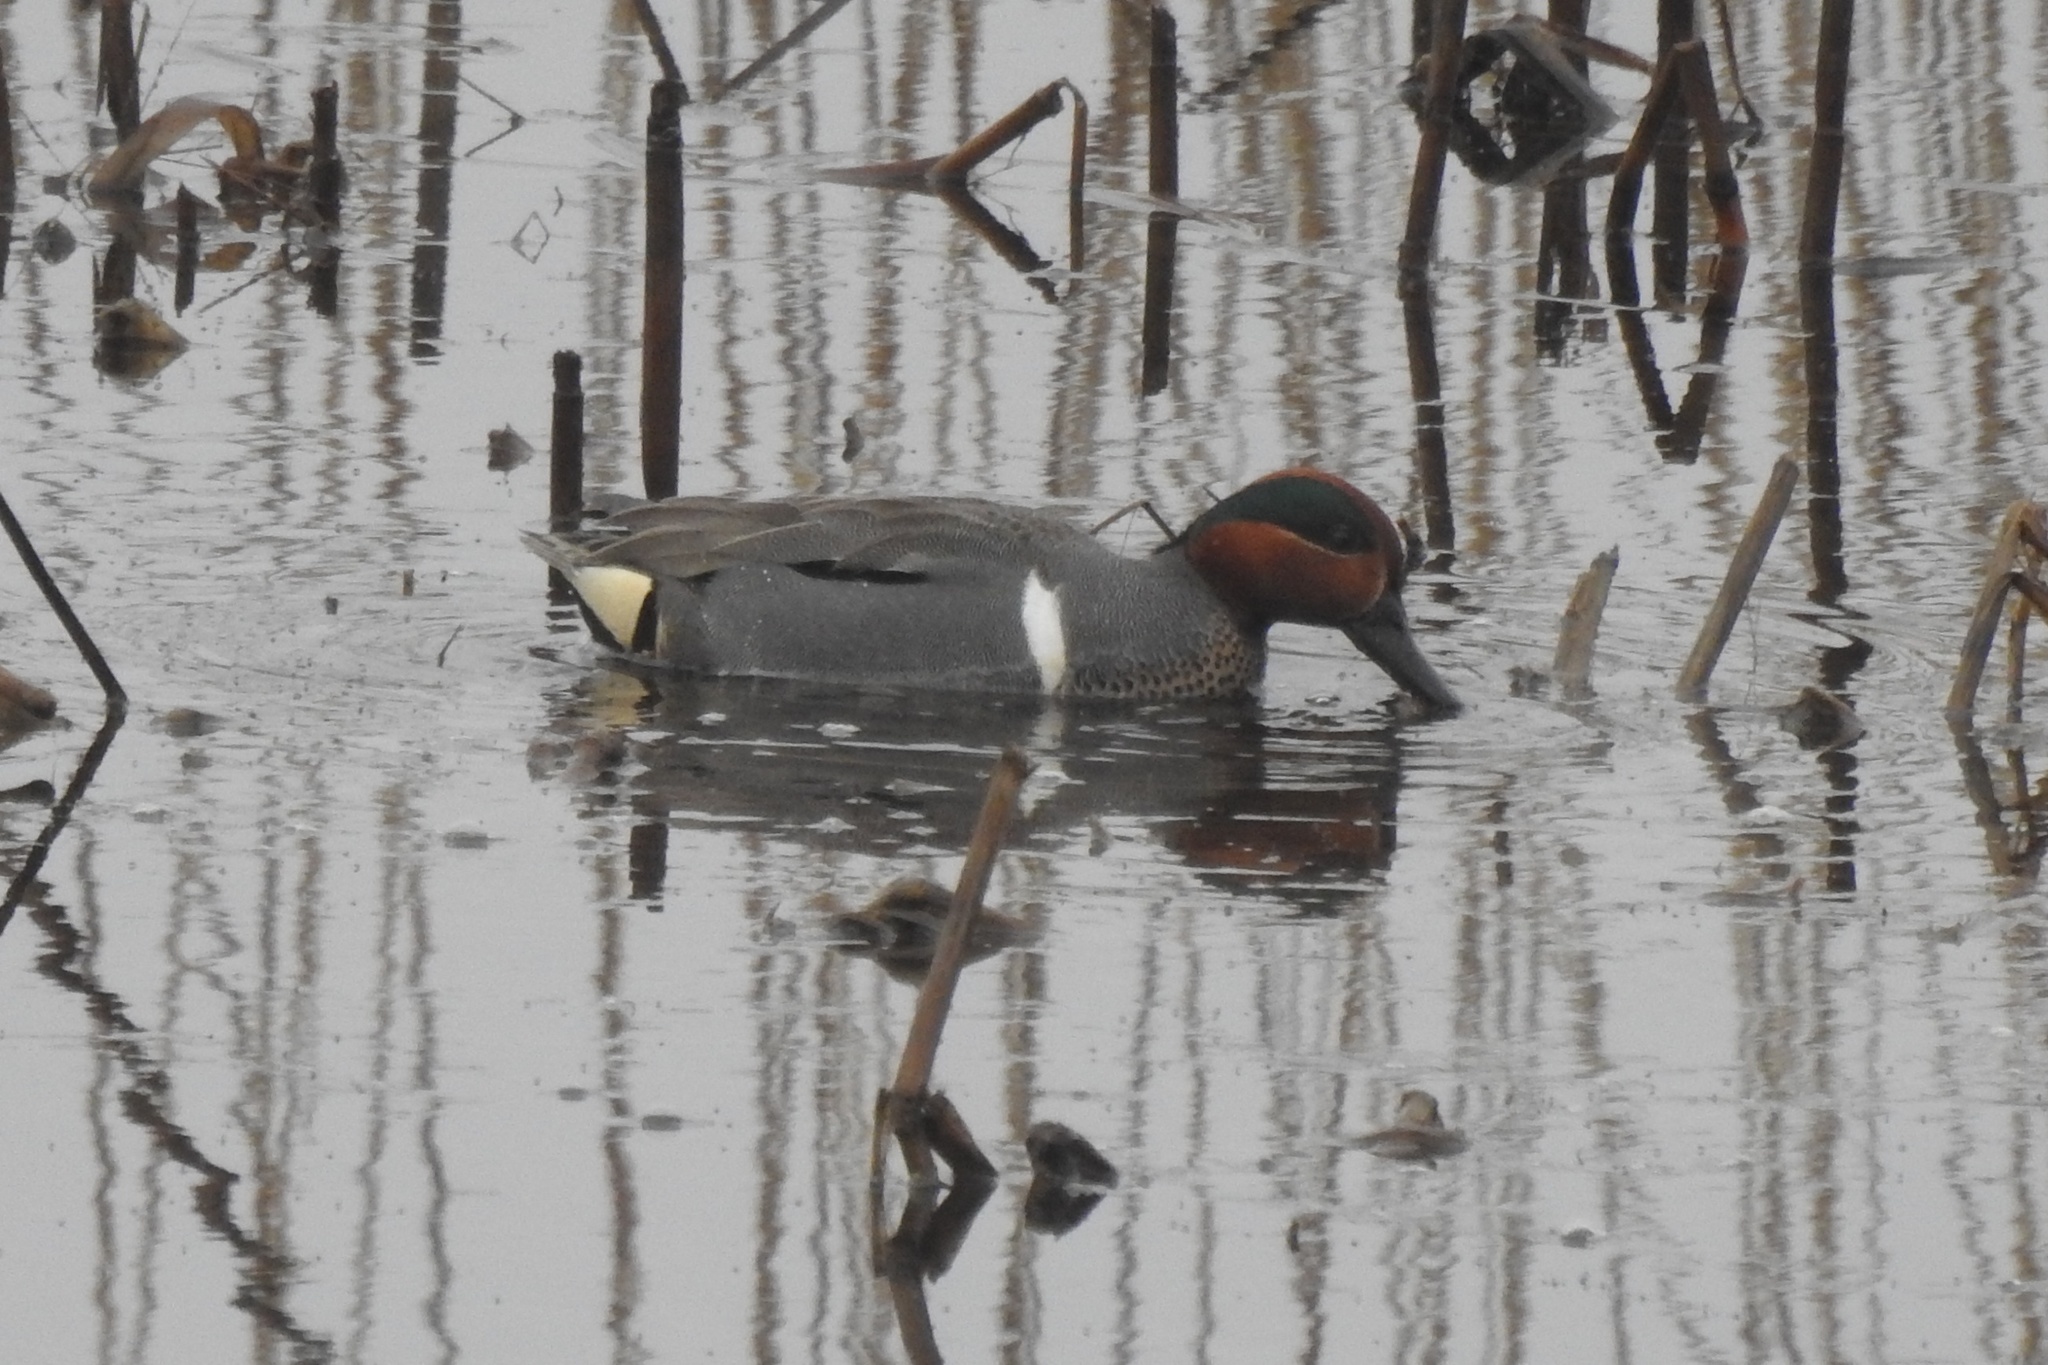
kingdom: Animalia
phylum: Chordata
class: Aves
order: Anseriformes
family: Anatidae
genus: Anas
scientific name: Anas crecca
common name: Eurasian teal
